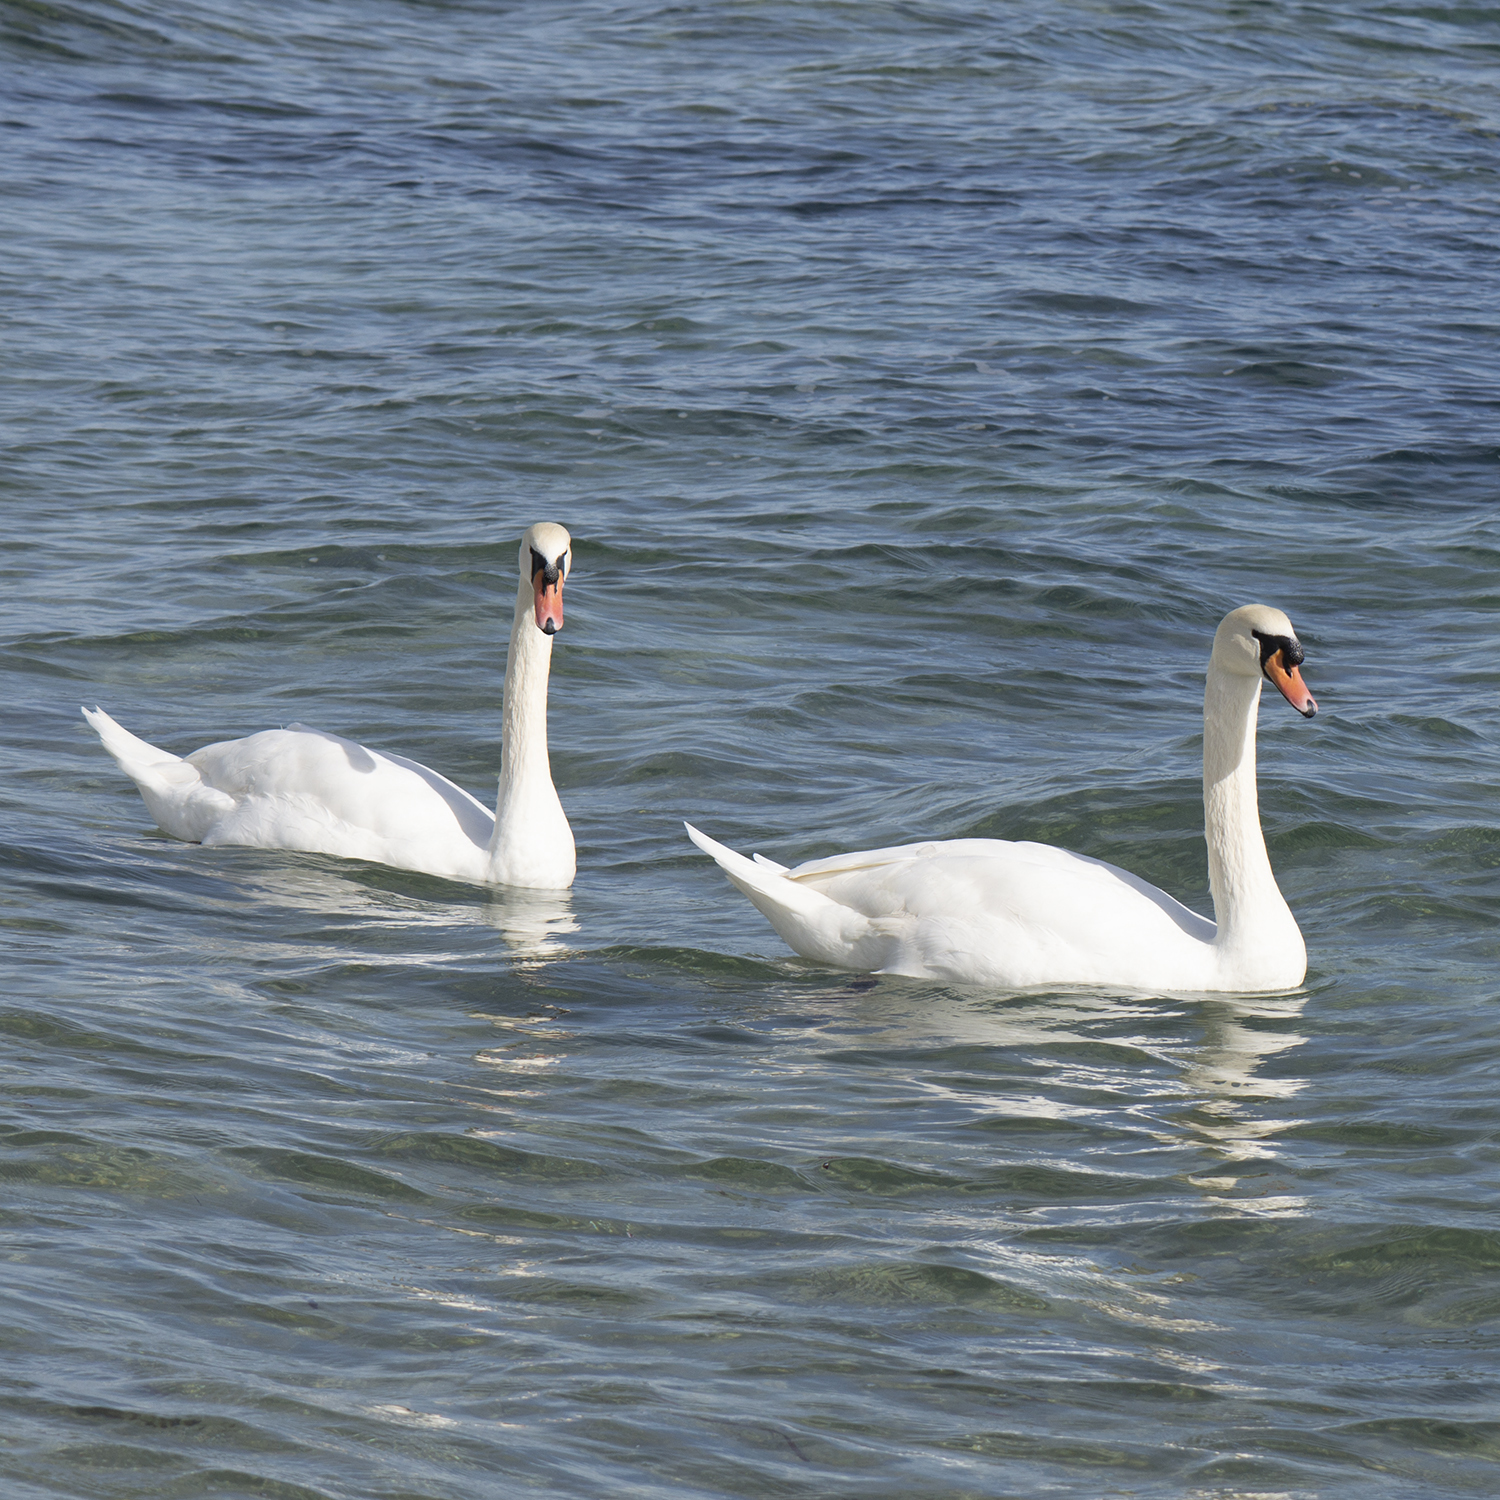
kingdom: Animalia
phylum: Chordata
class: Aves
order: Anseriformes
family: Anatidae
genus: Cygnus
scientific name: Cygnus olor
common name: Mute swan
